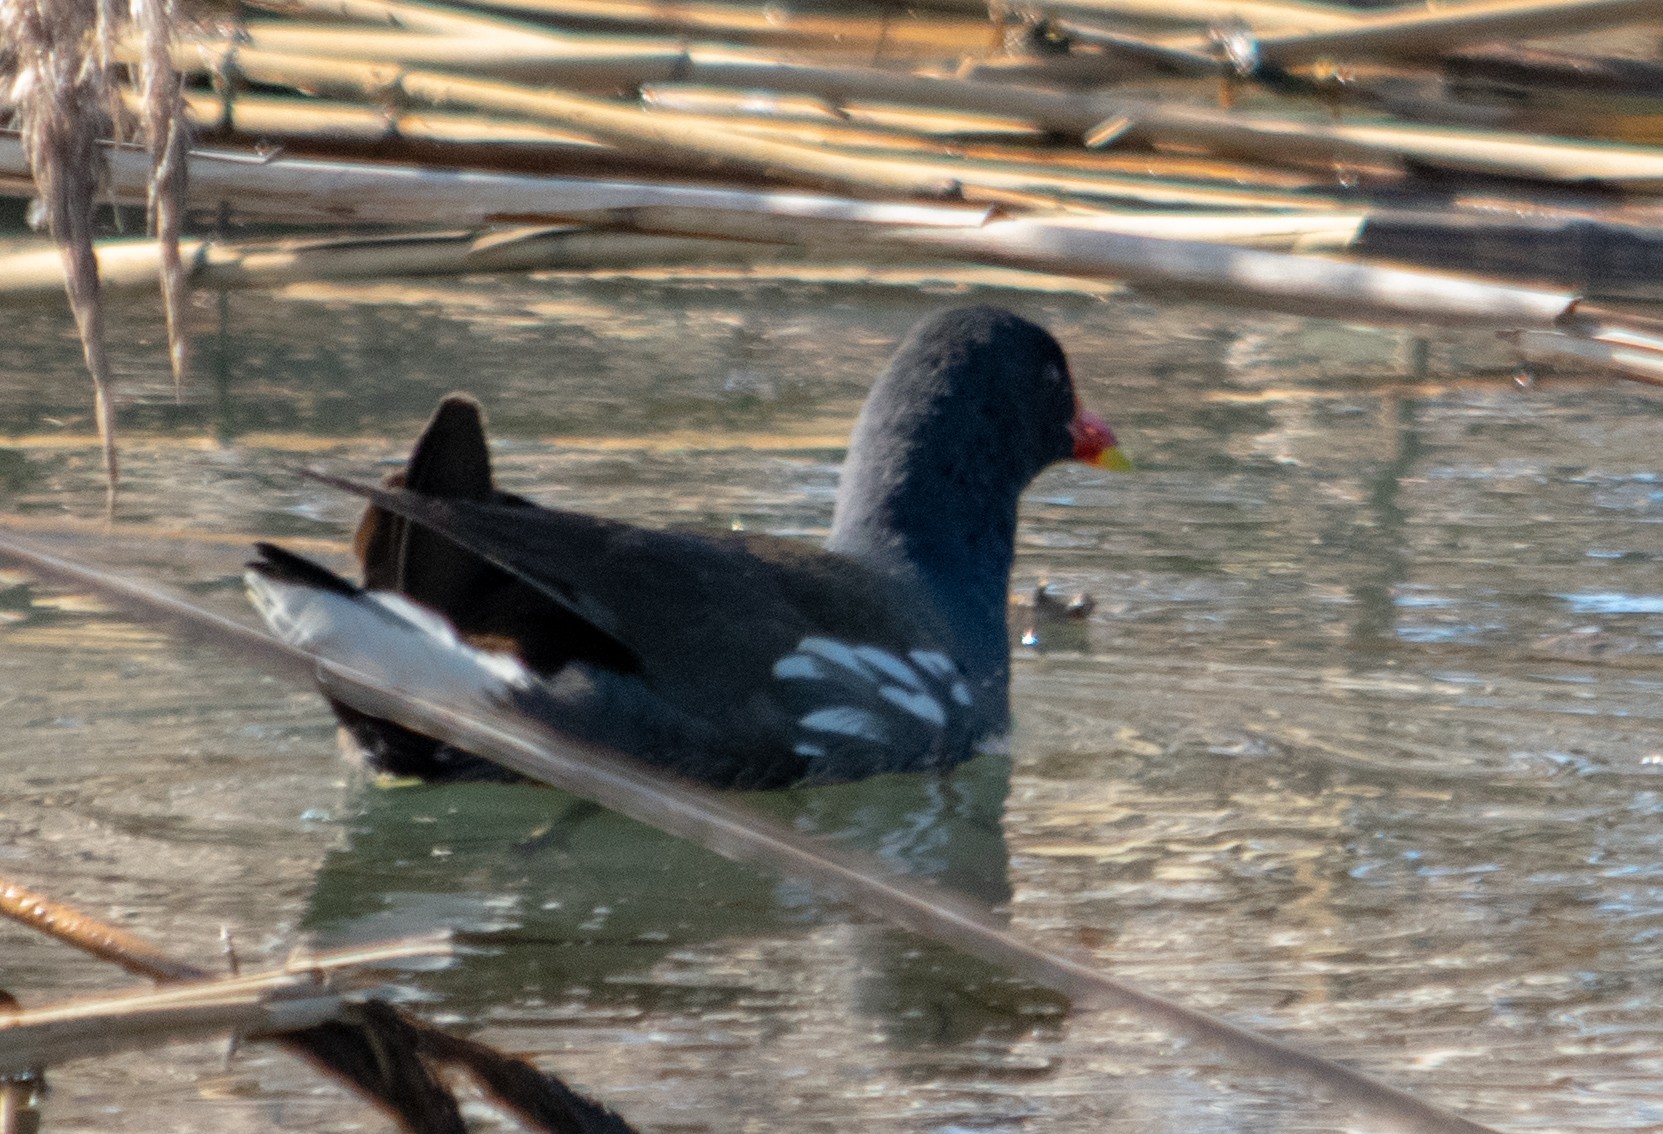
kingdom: Animalia
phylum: Chordata
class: Aves
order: Gruiformes
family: Rallidae
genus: Gallinula
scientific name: Gallinula chloropus
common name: Common moorhen
